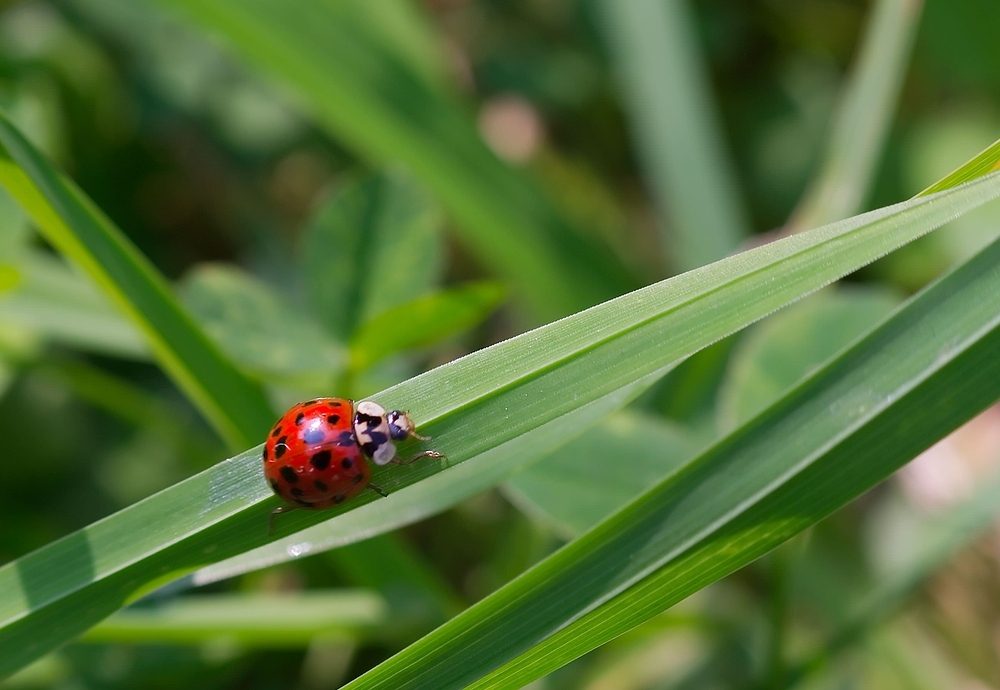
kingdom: Animalia
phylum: Arthropoda
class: Insecta
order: Coleoptera
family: Coccinellidae
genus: Harmonia
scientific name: Harmonia axyridis
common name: Harlequin ladybird
